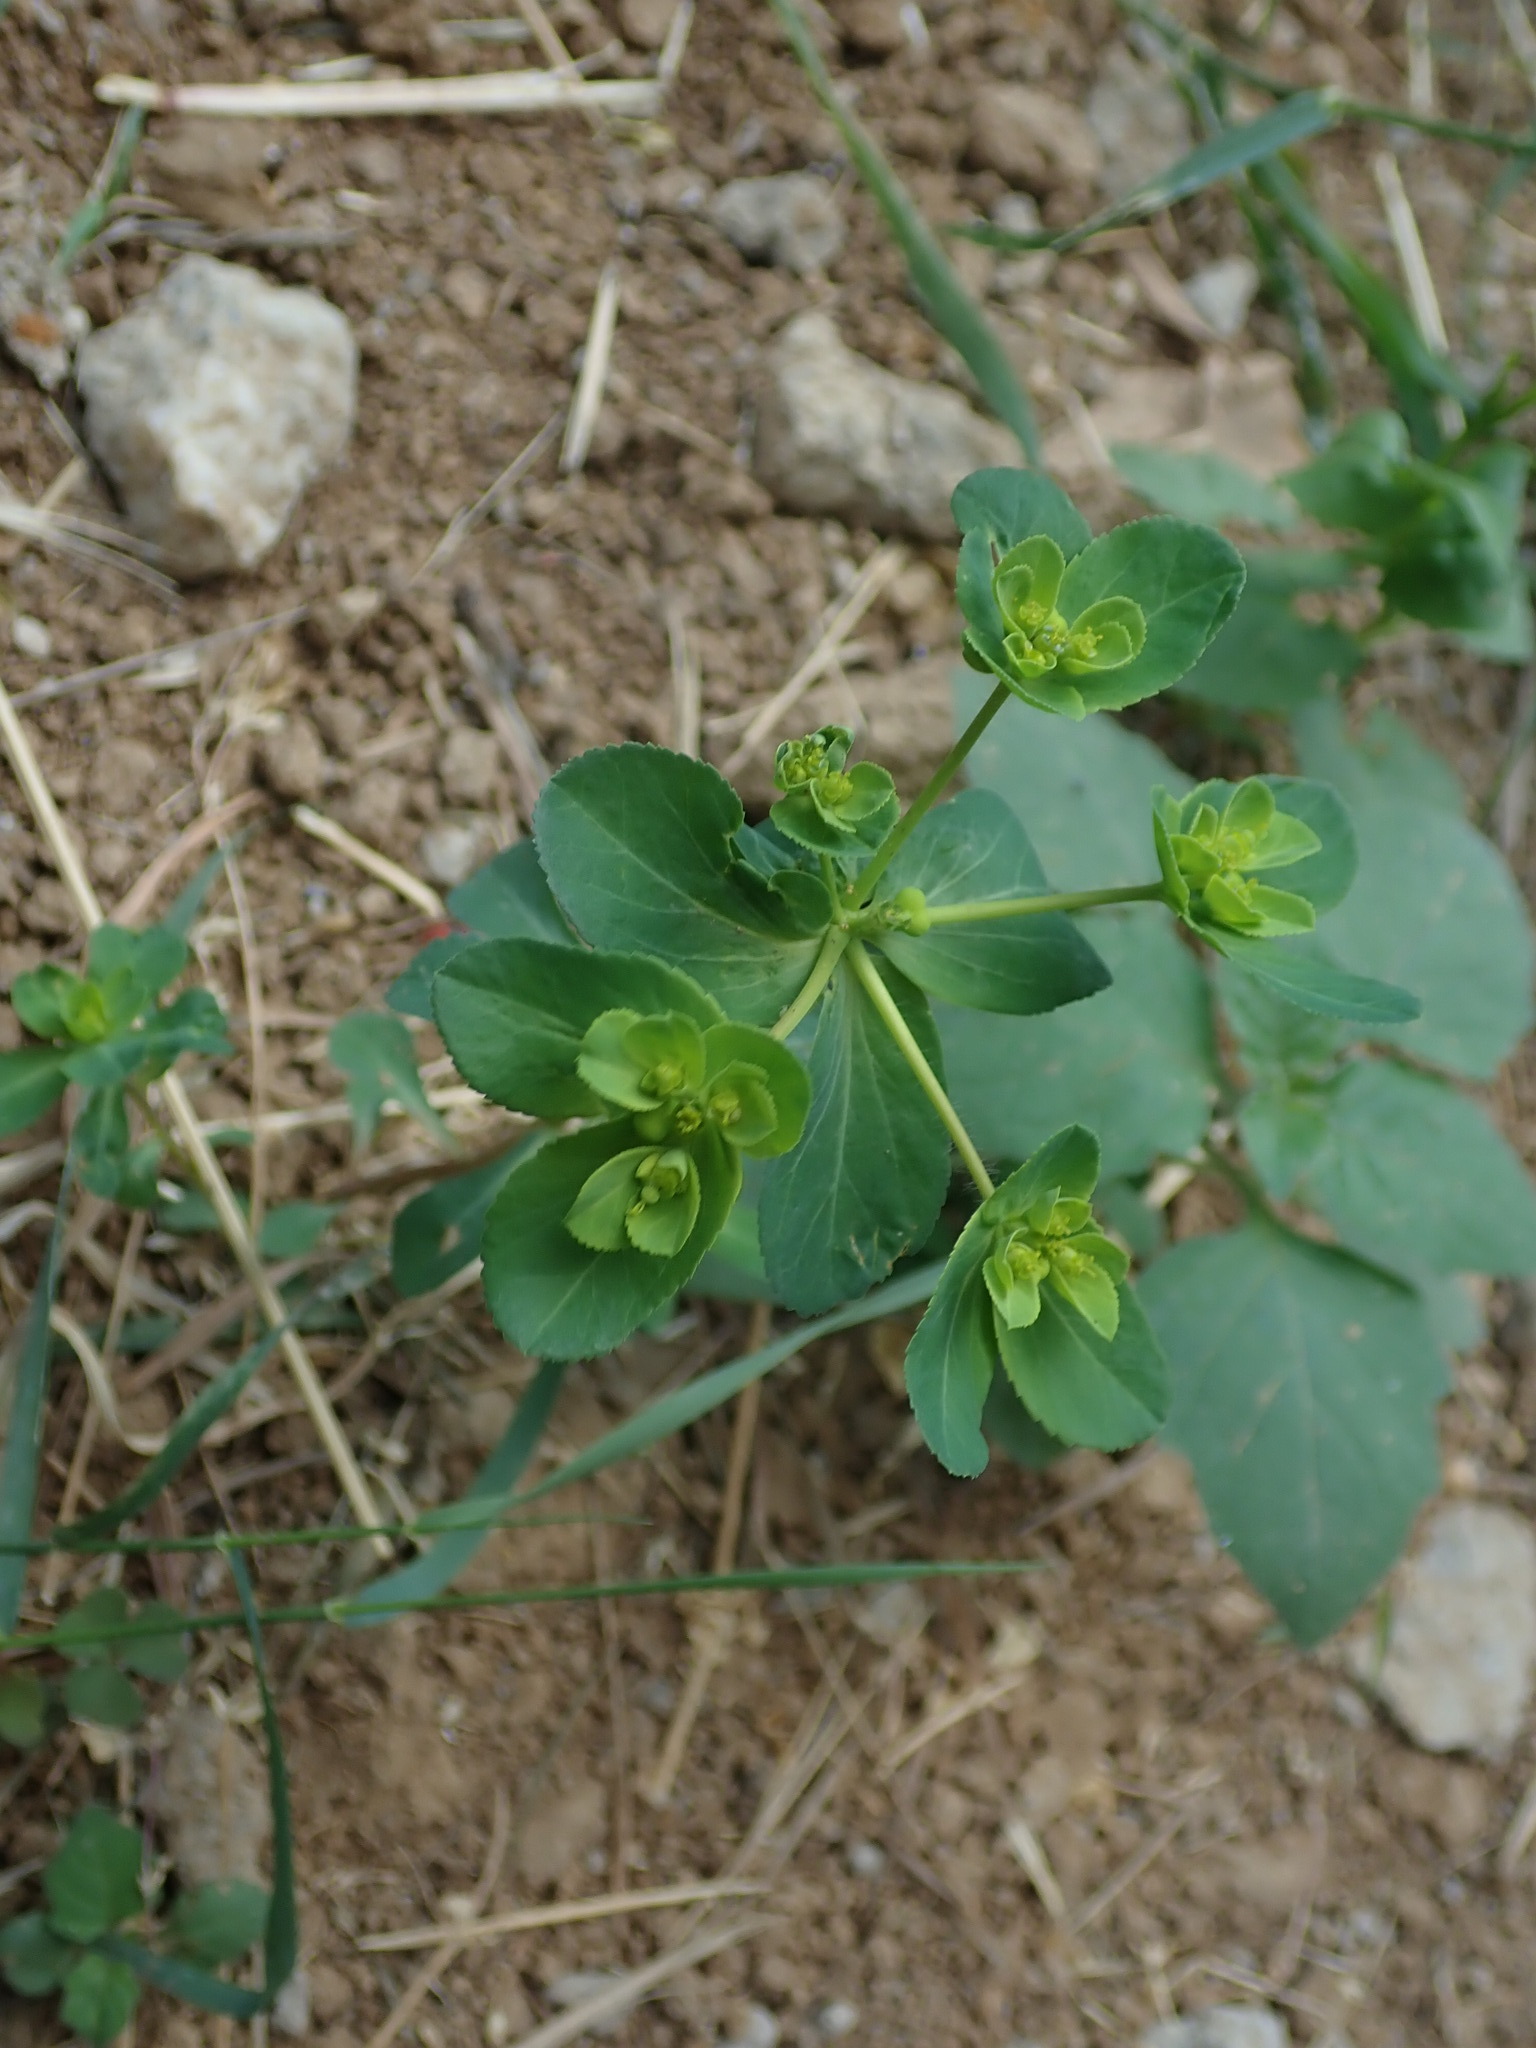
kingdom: Plantae
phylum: Tracheophyta
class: Magnoliopsida
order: Malpighiales
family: Euphorbiaceae
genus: Euphorbia
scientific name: Euphorbia helioscopia
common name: Sun spurge
